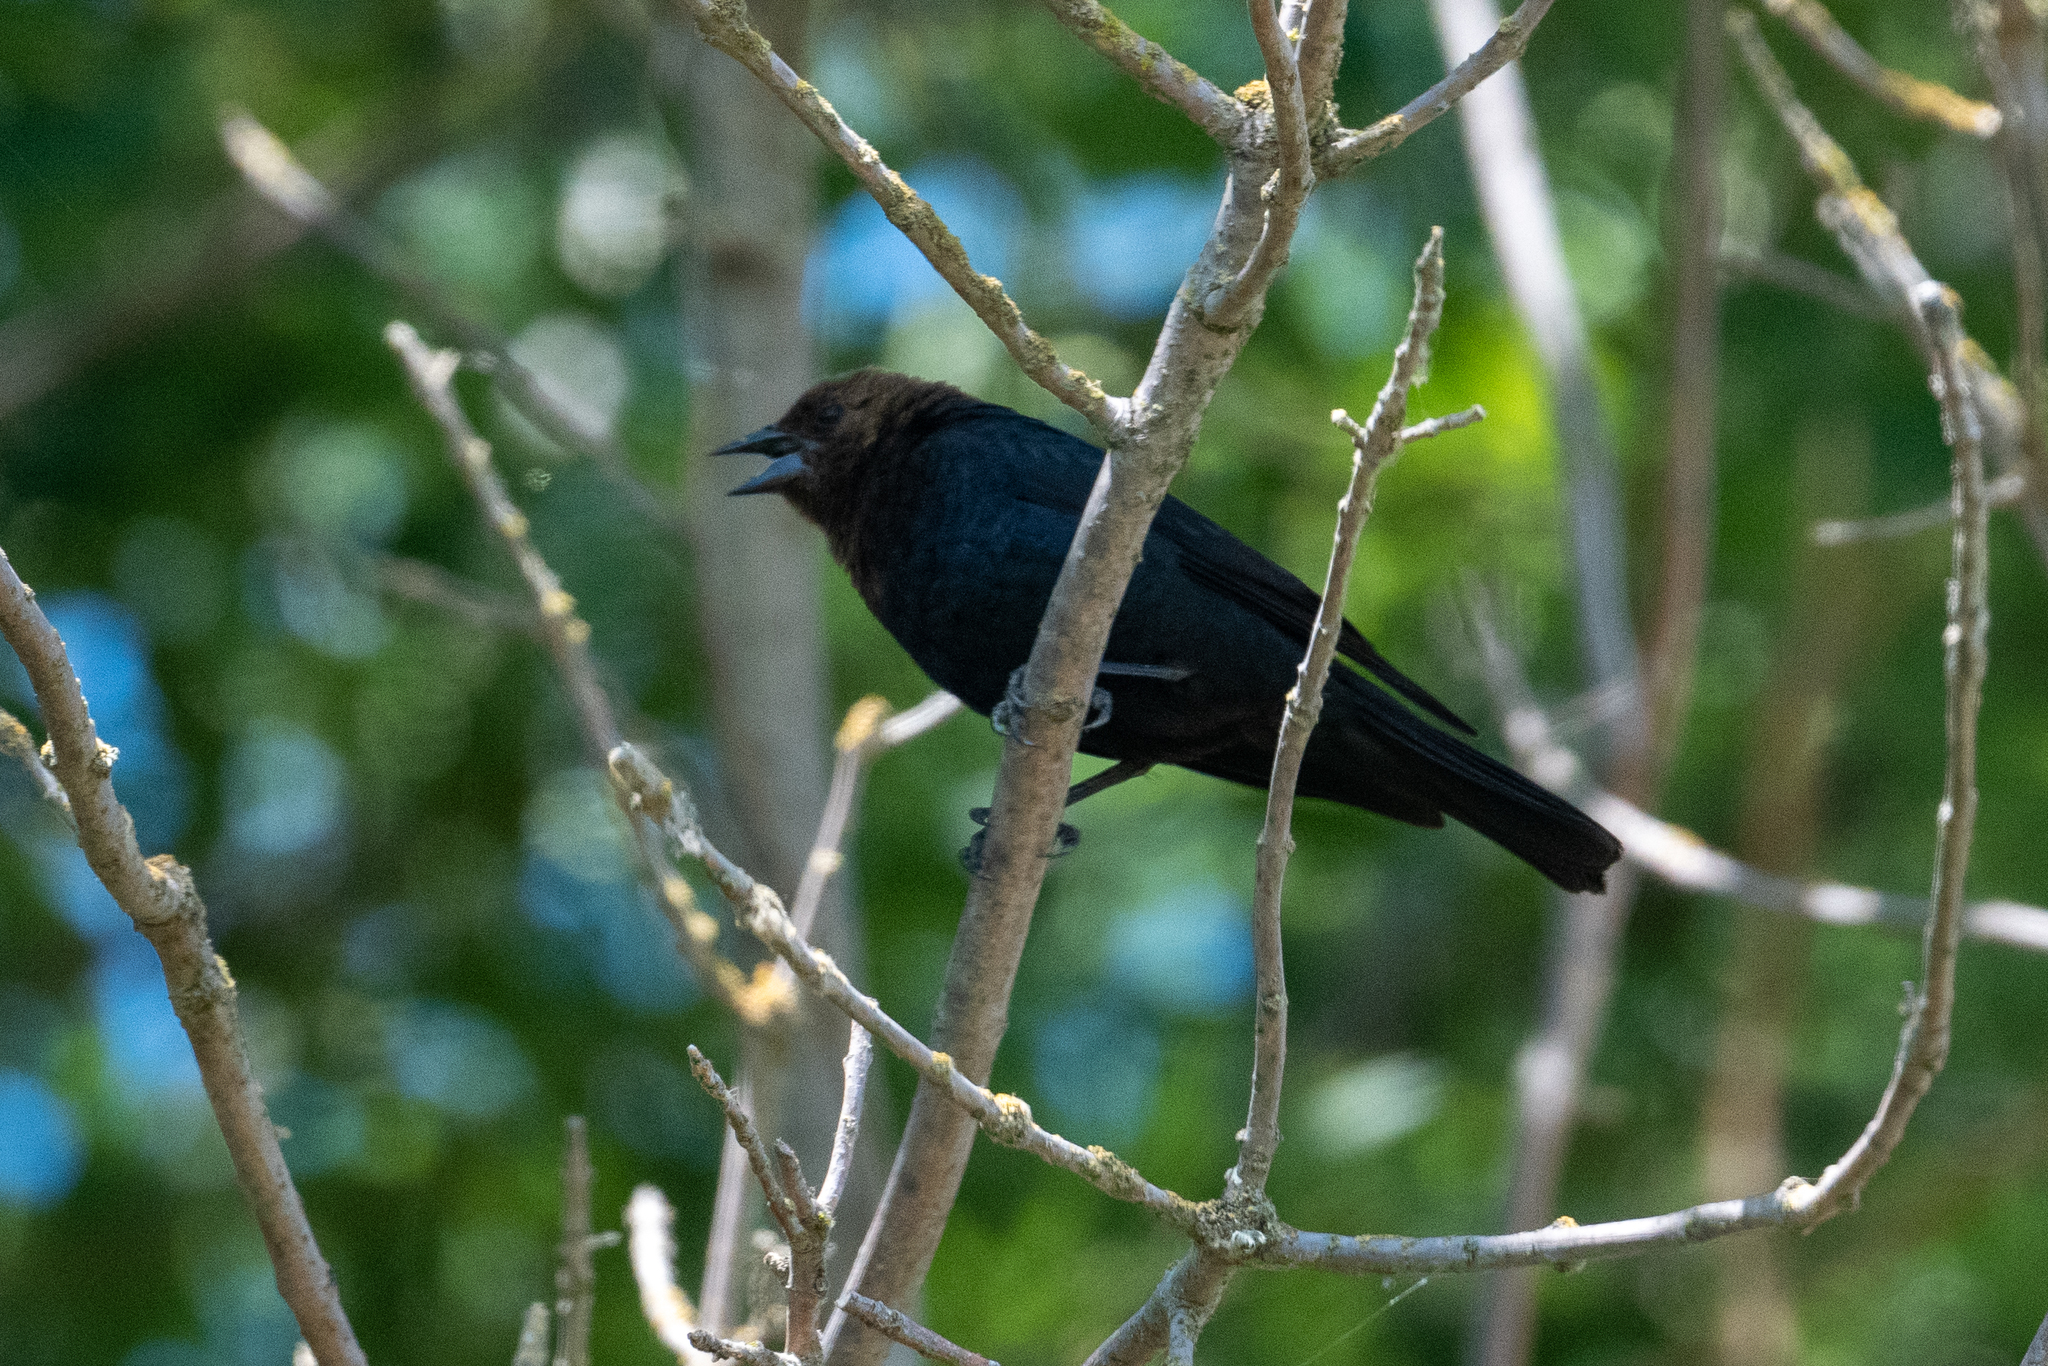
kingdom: Animalia
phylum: Chordata
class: Aves
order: Passeriformes
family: Icteridae
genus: Molothrus
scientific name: Molothrus ater
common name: Brown-headed cowbird
